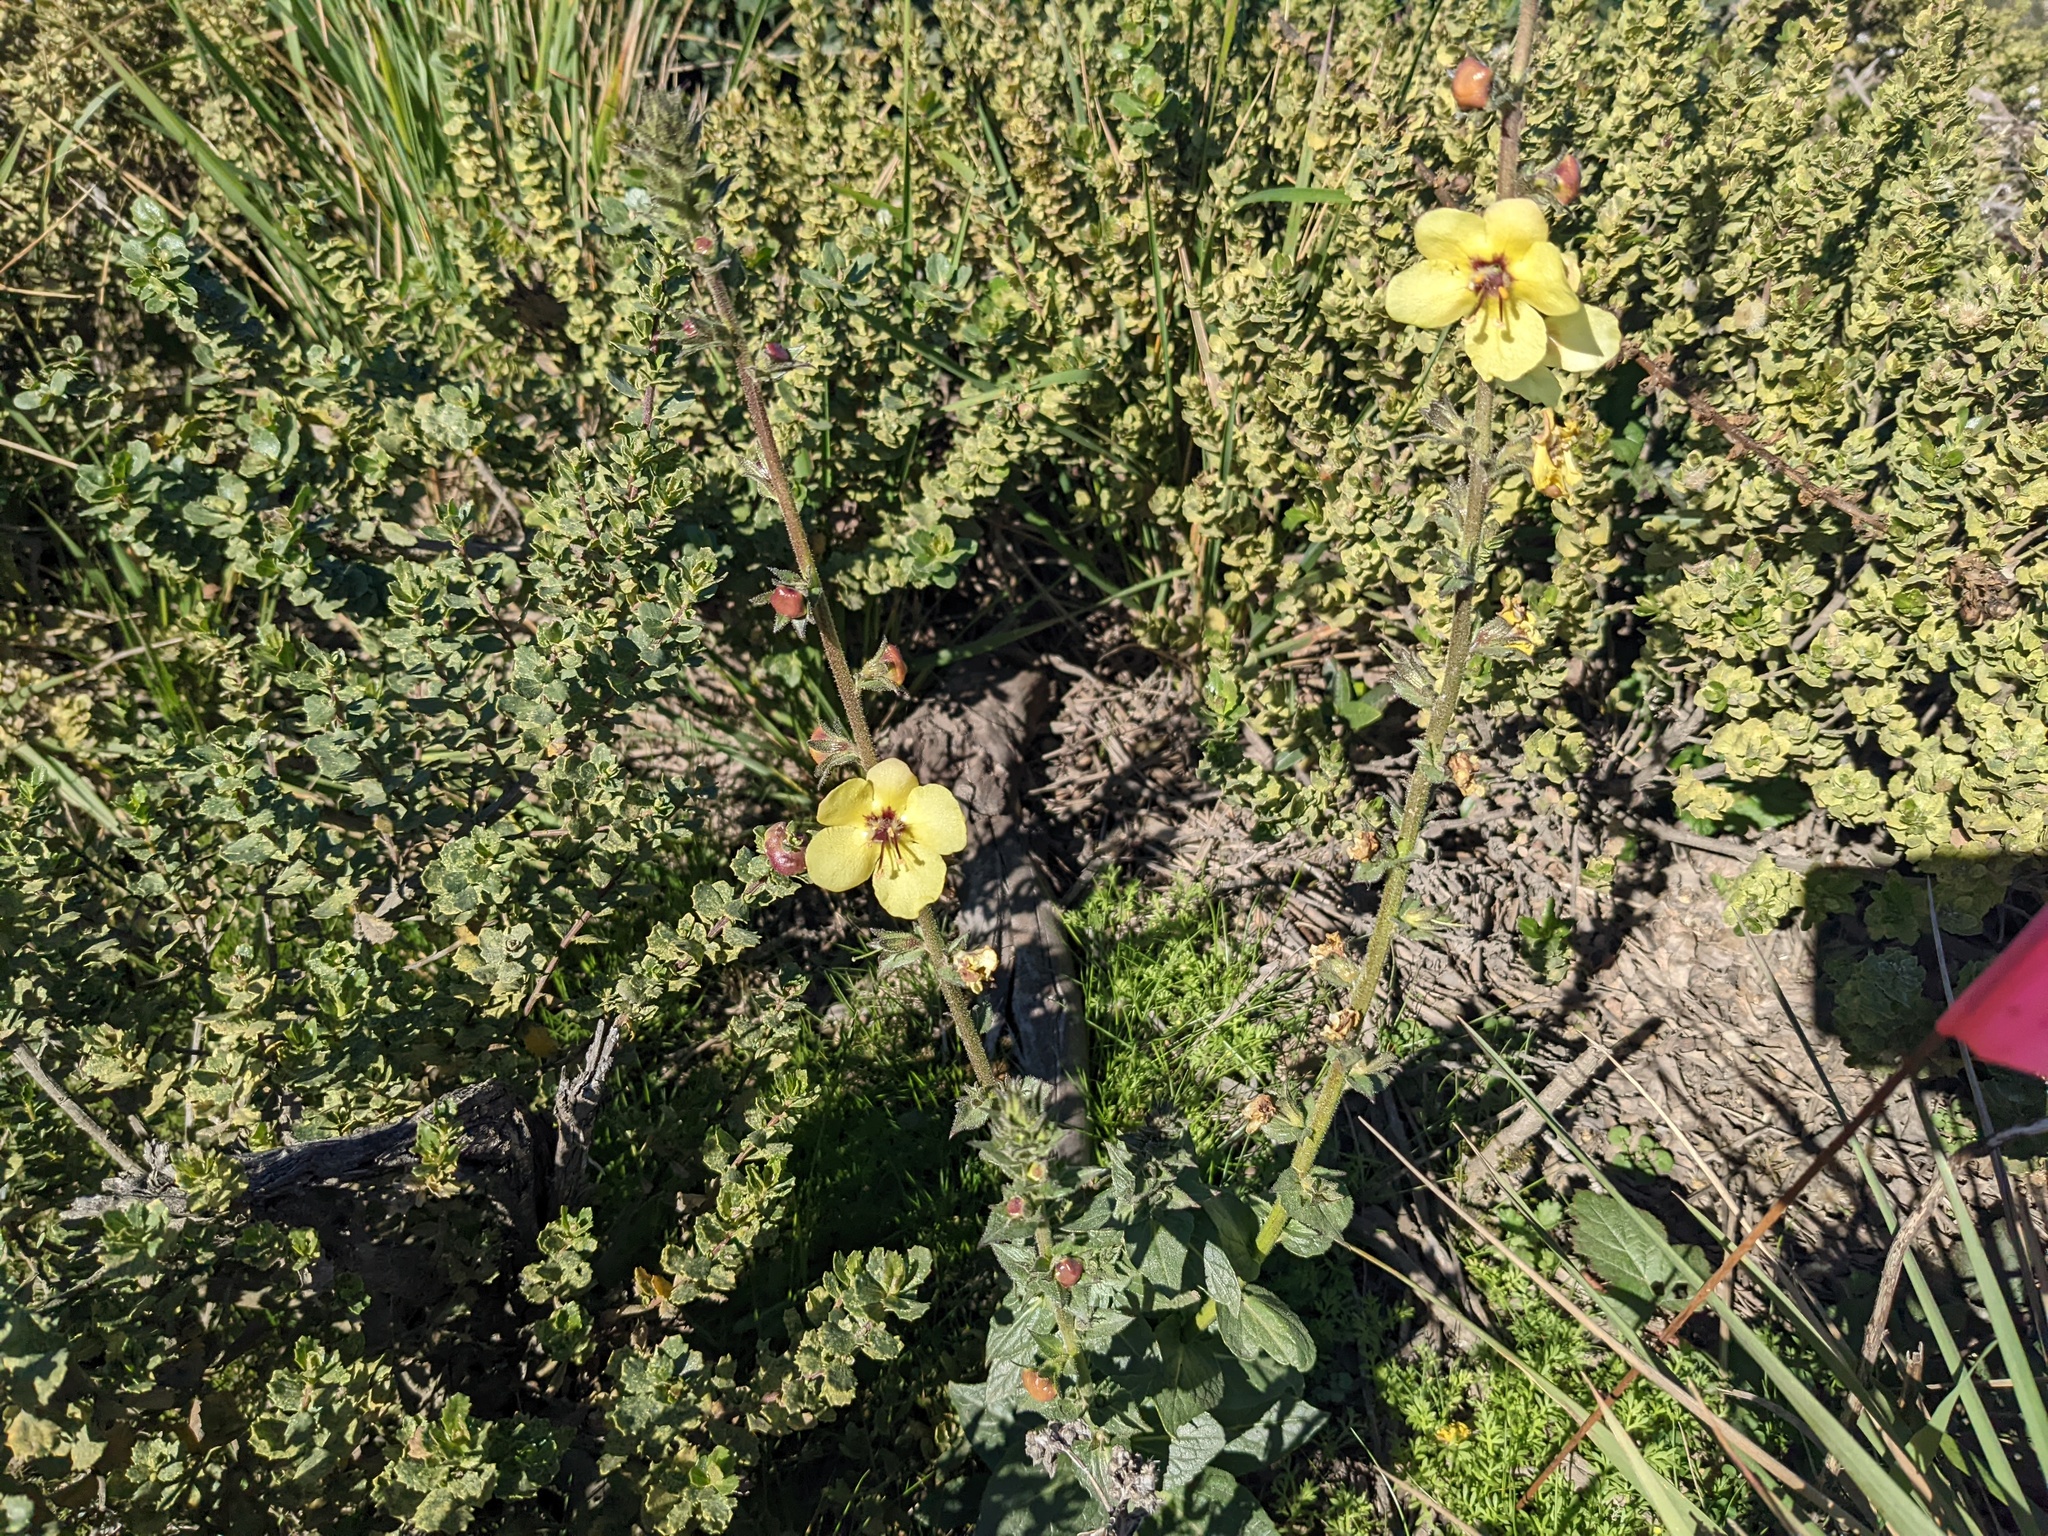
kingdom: Plantae
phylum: Tracheophyta
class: Magnoliopsida
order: Lamiales
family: Scrophulariaceae
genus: Verbascum
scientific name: Verbascum virgatum
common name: Twiggy mullein
